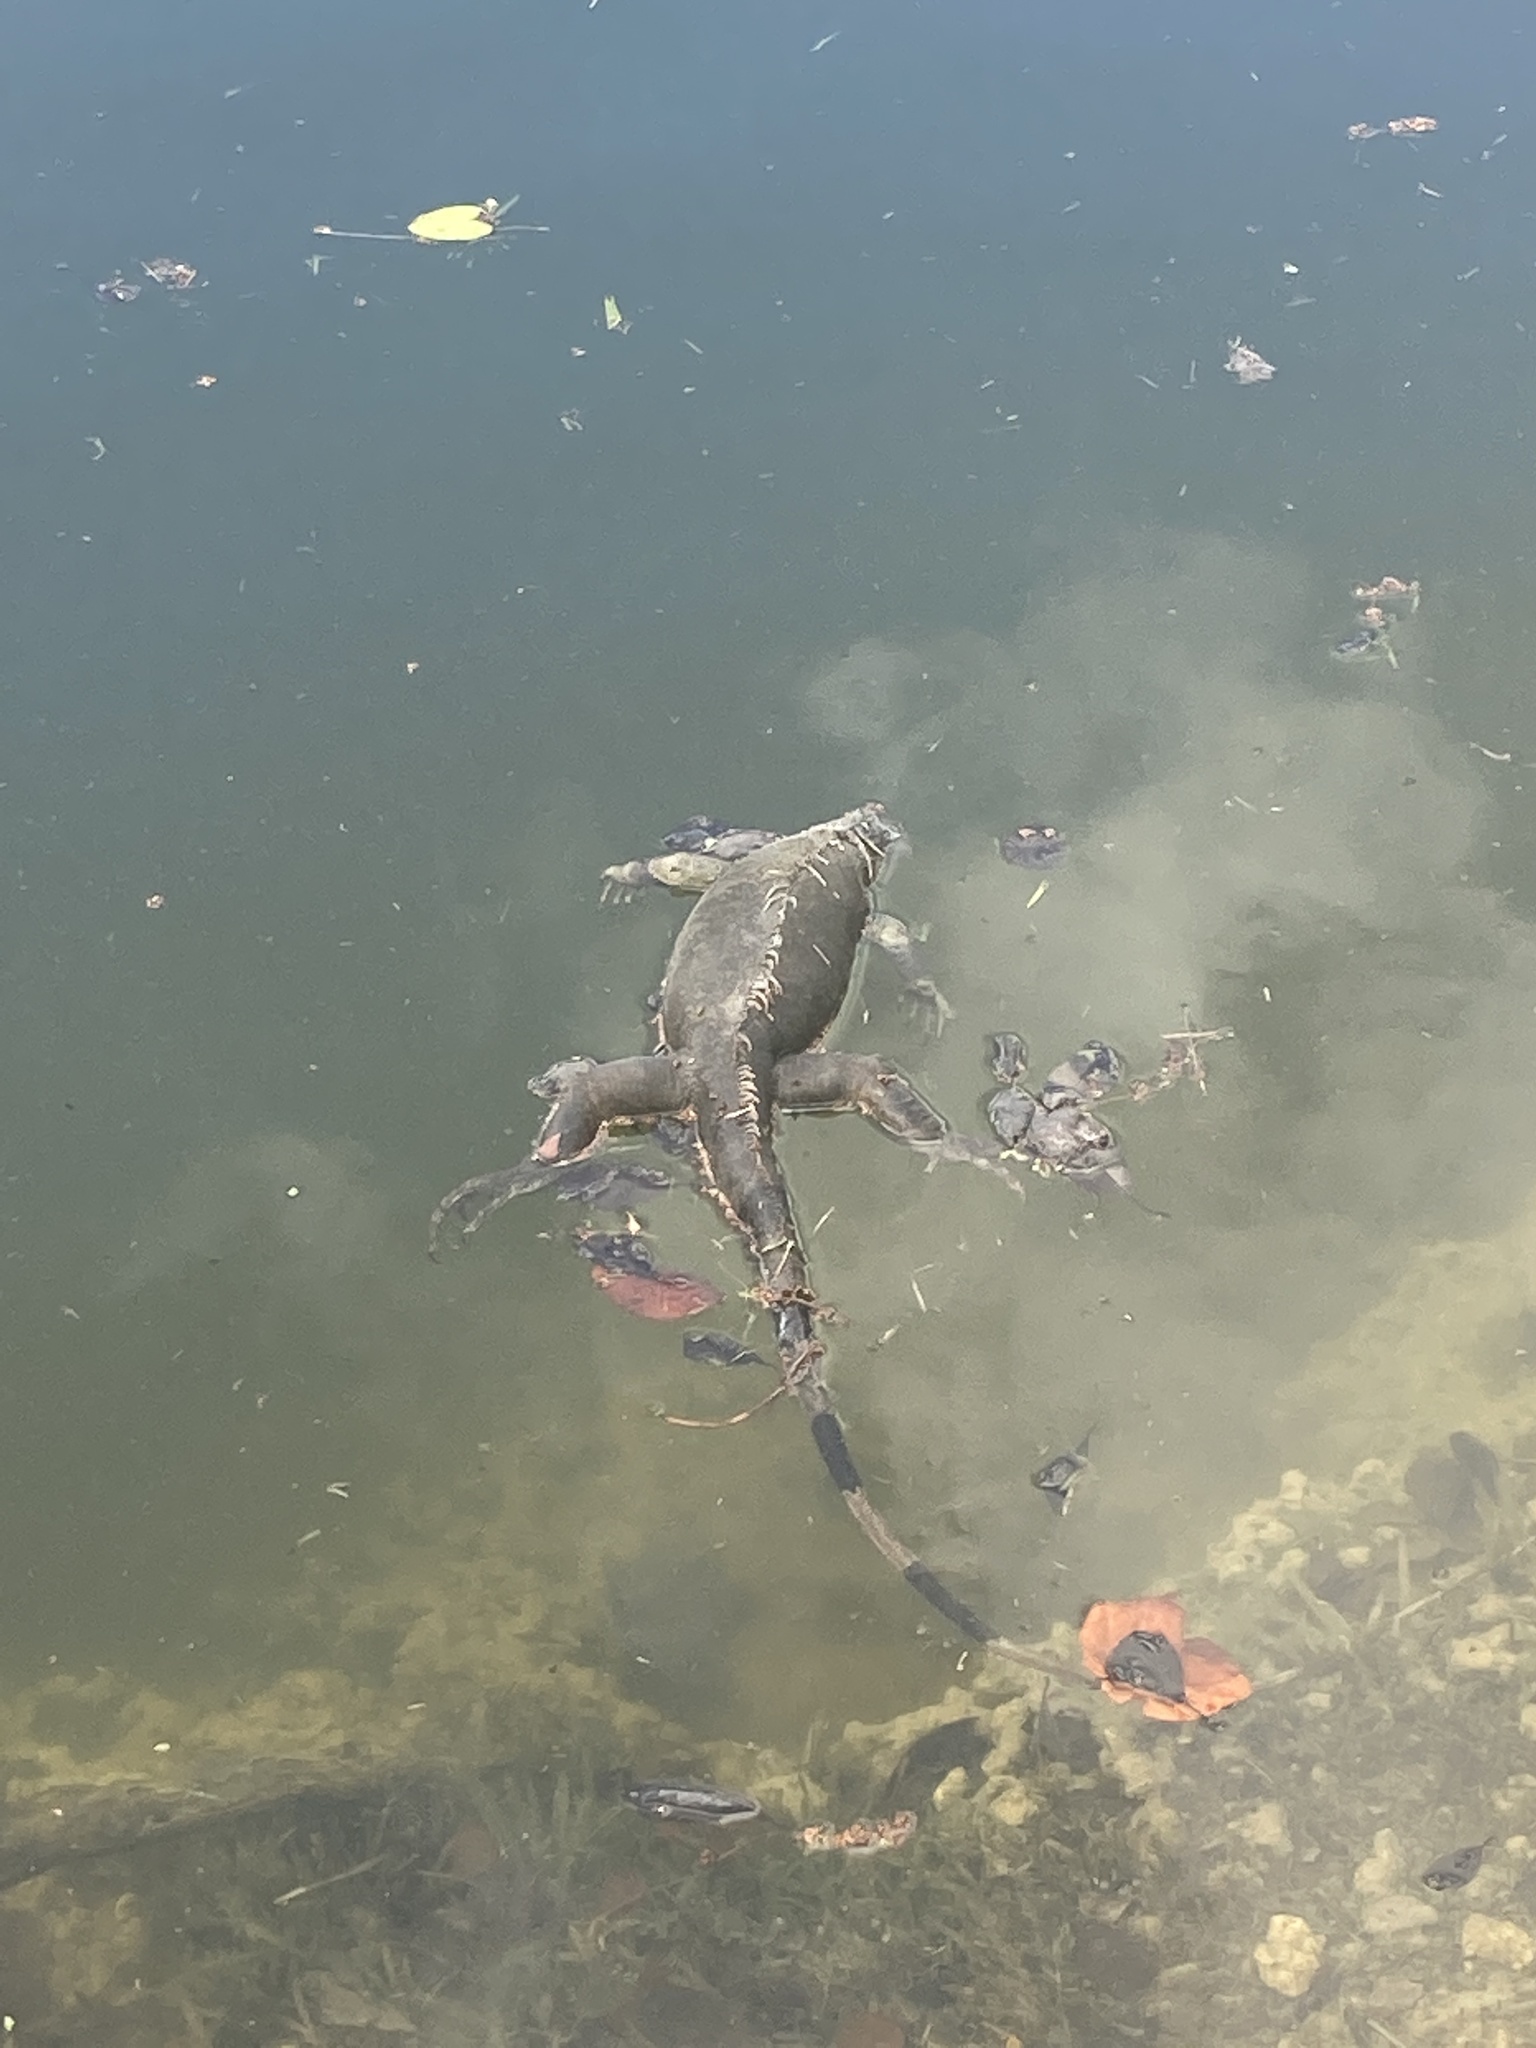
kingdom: Animalia
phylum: Chordata
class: Squamata
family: Iguanidae
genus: Iguana
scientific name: Iguana iguana
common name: Green iguana
